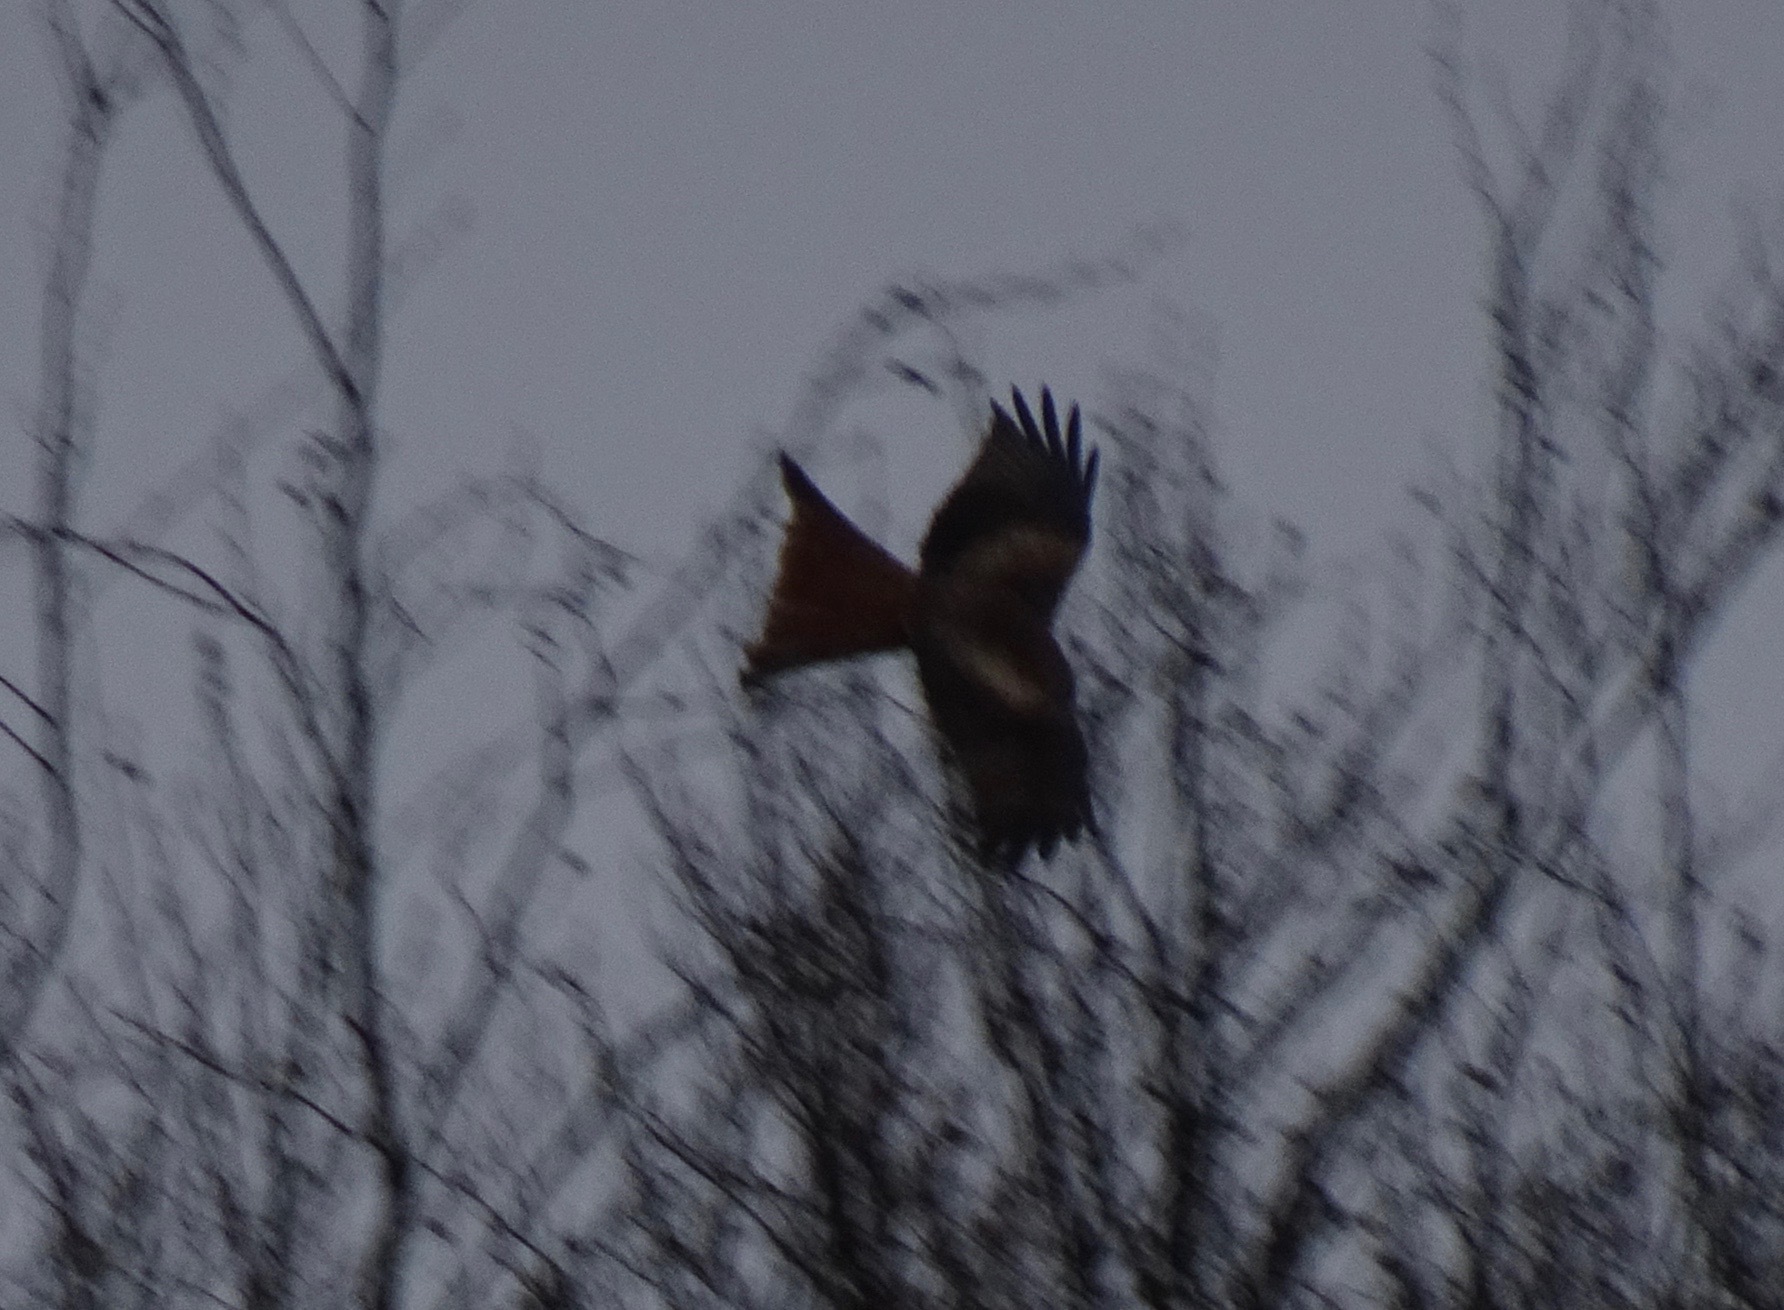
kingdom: Animalia
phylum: Chordata
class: Aves
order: Accipitriformes
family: Accipitridae
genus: Milvus
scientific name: Milvus milvus
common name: Red kite
